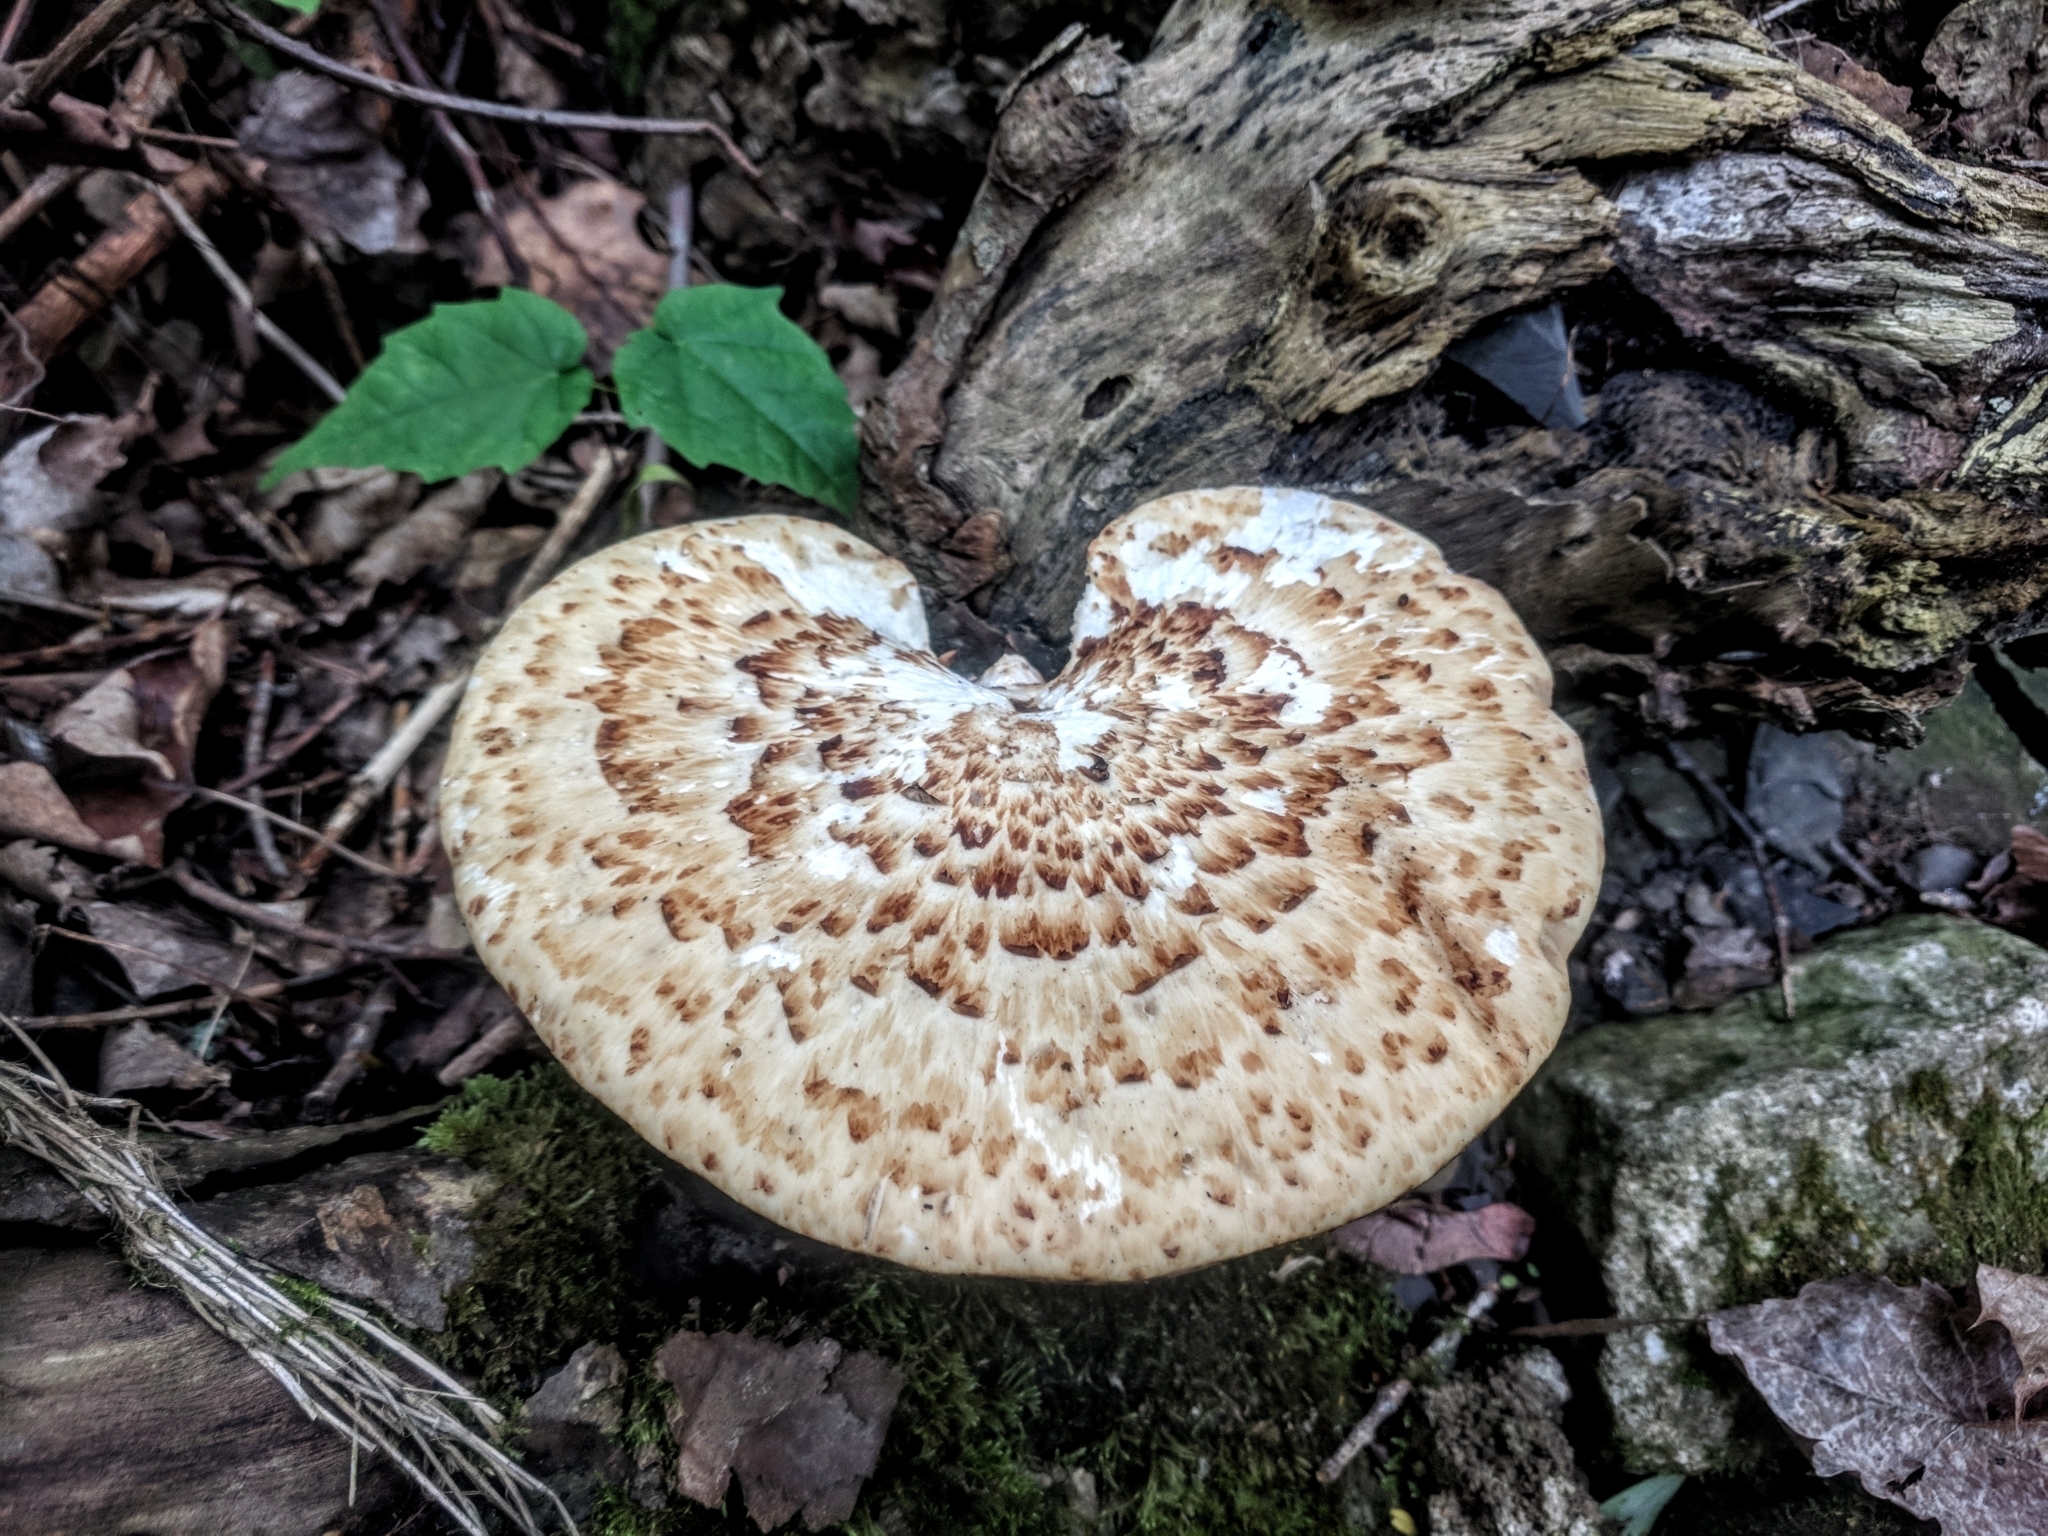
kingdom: Fungi
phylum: Basidiomycota
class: Agaricomycetes
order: Polyporales
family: Polyporaceae
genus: Cerioporus
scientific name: Cerioporus squamosus
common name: Dryad's saddle
